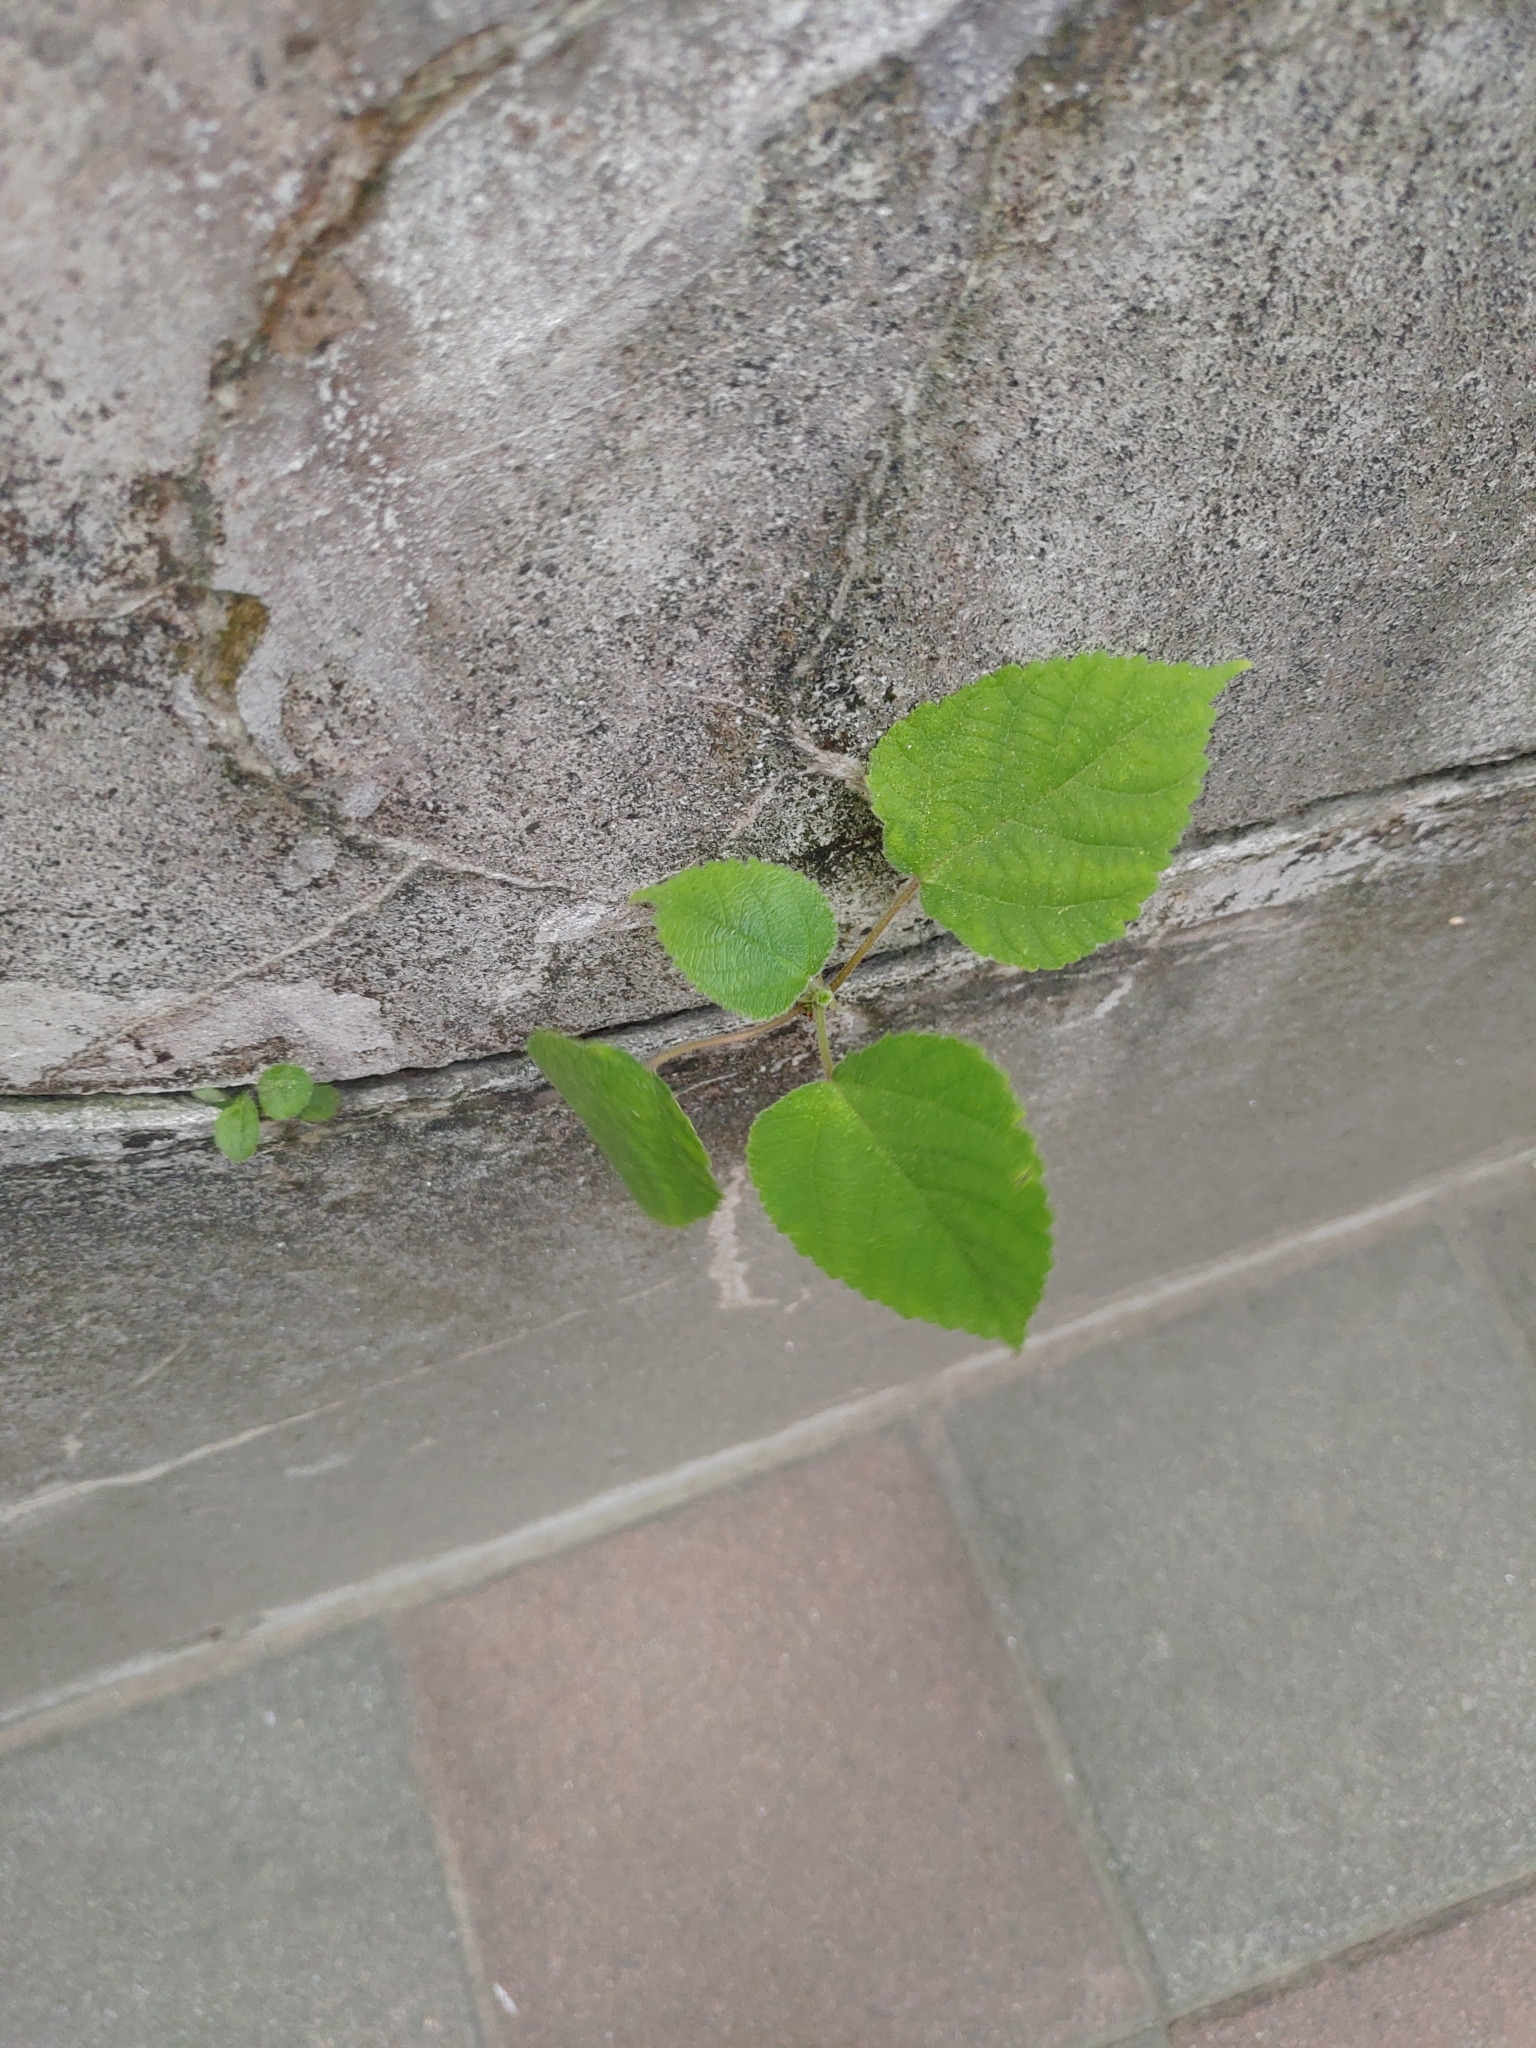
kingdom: Plantae
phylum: Tracheophyta
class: Magnoliopsida
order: Rosales
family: Moraceae
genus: Broussonetia
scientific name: Broussonetia papyrifera
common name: Paper mulberry
